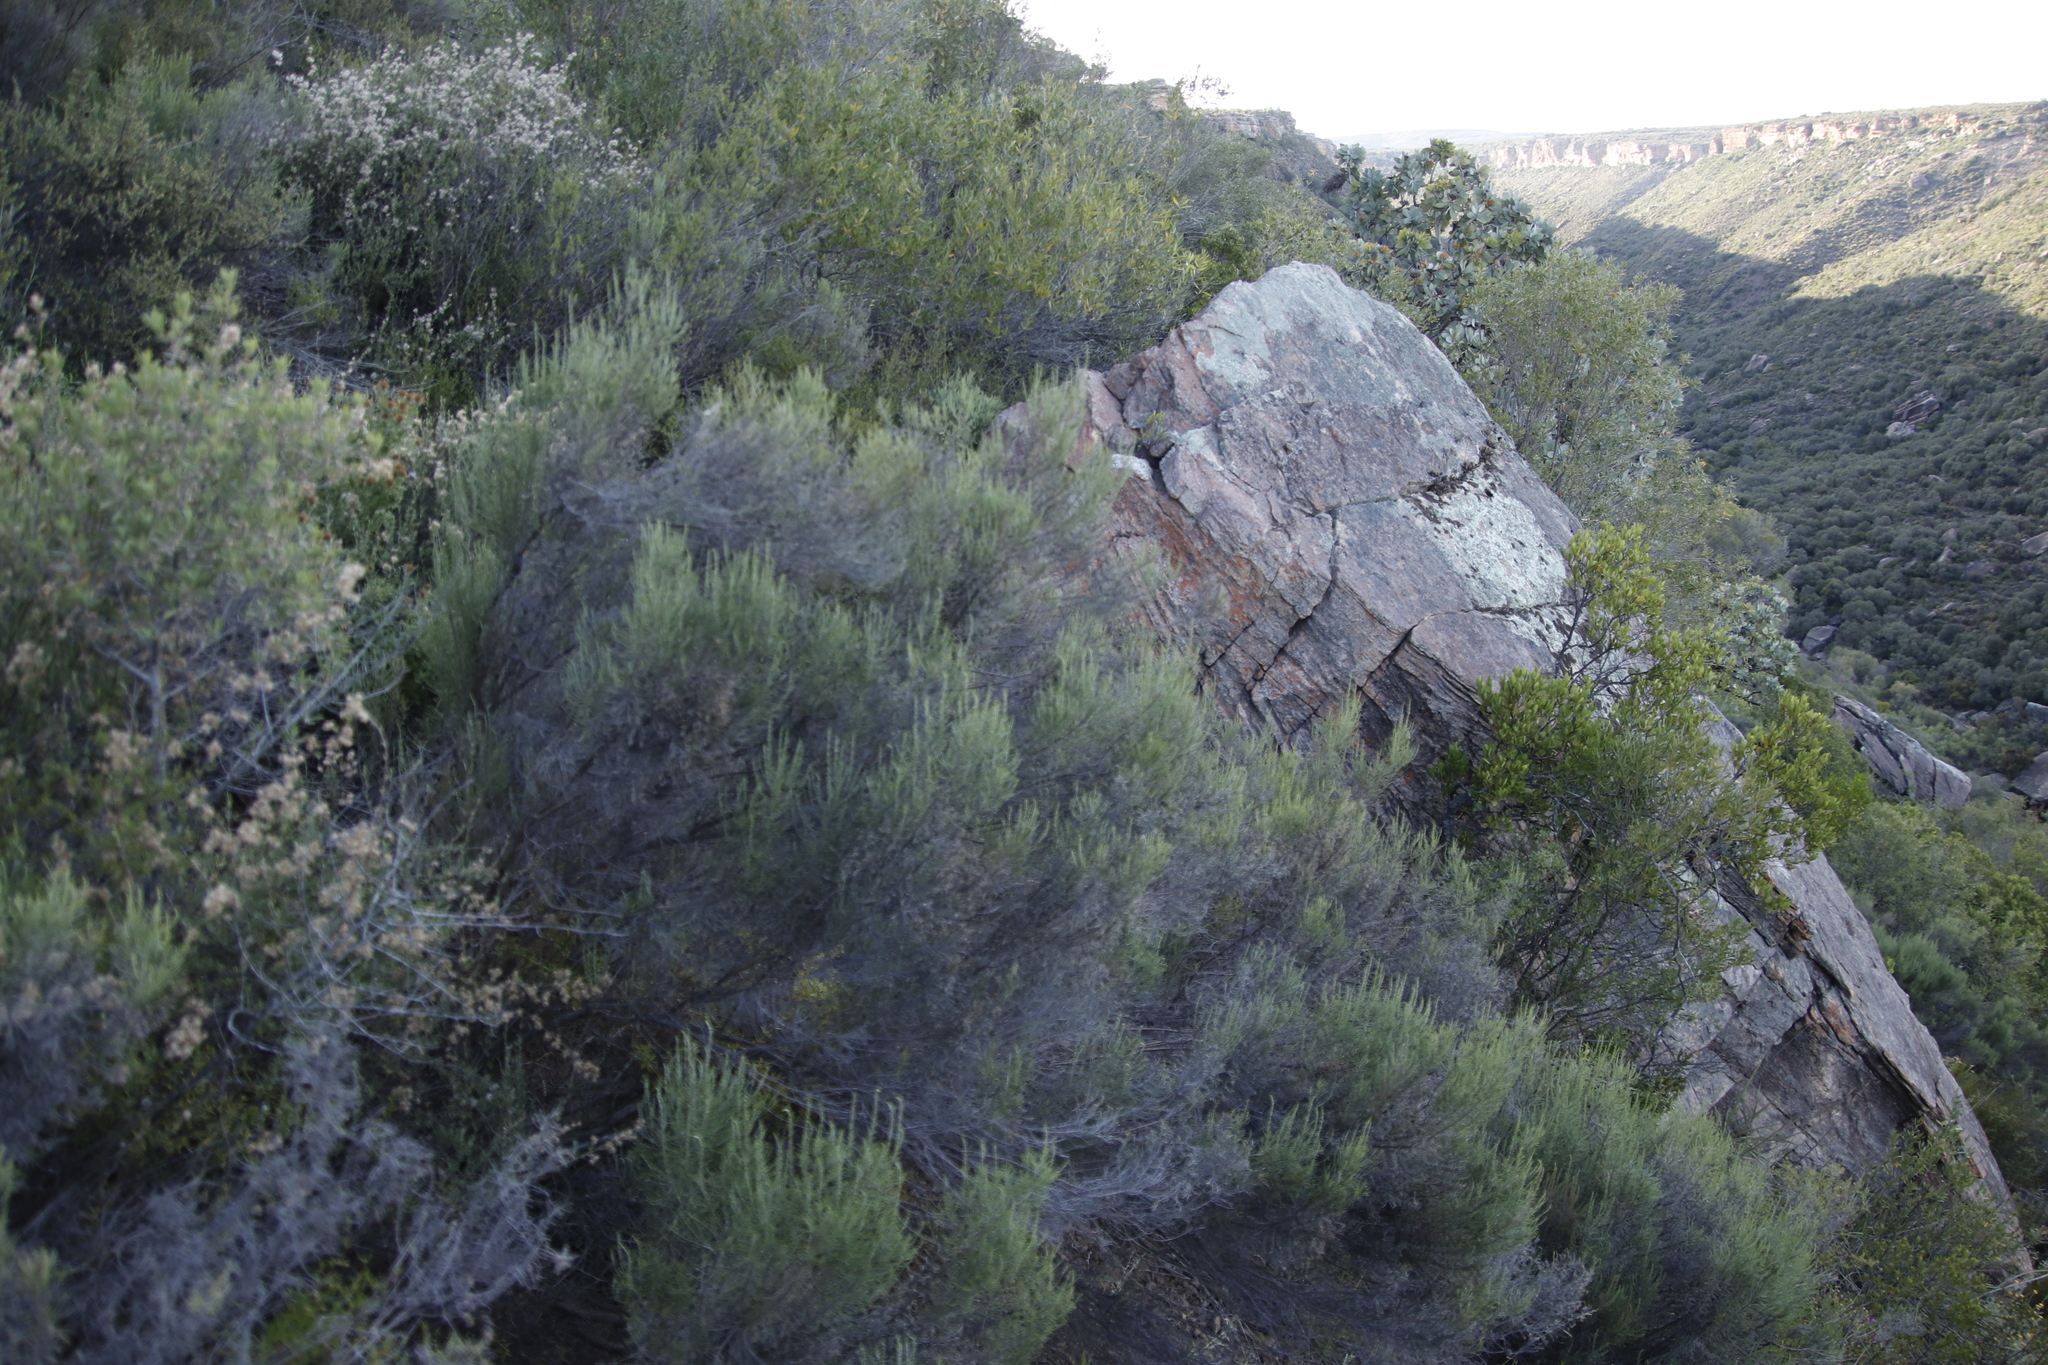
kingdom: Plantae
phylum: Tracheophyta
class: Magnoliopsida
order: Asterales
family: Asteraceae
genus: Dicerothamnus
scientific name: Dicerothamnus rhinocerotis
